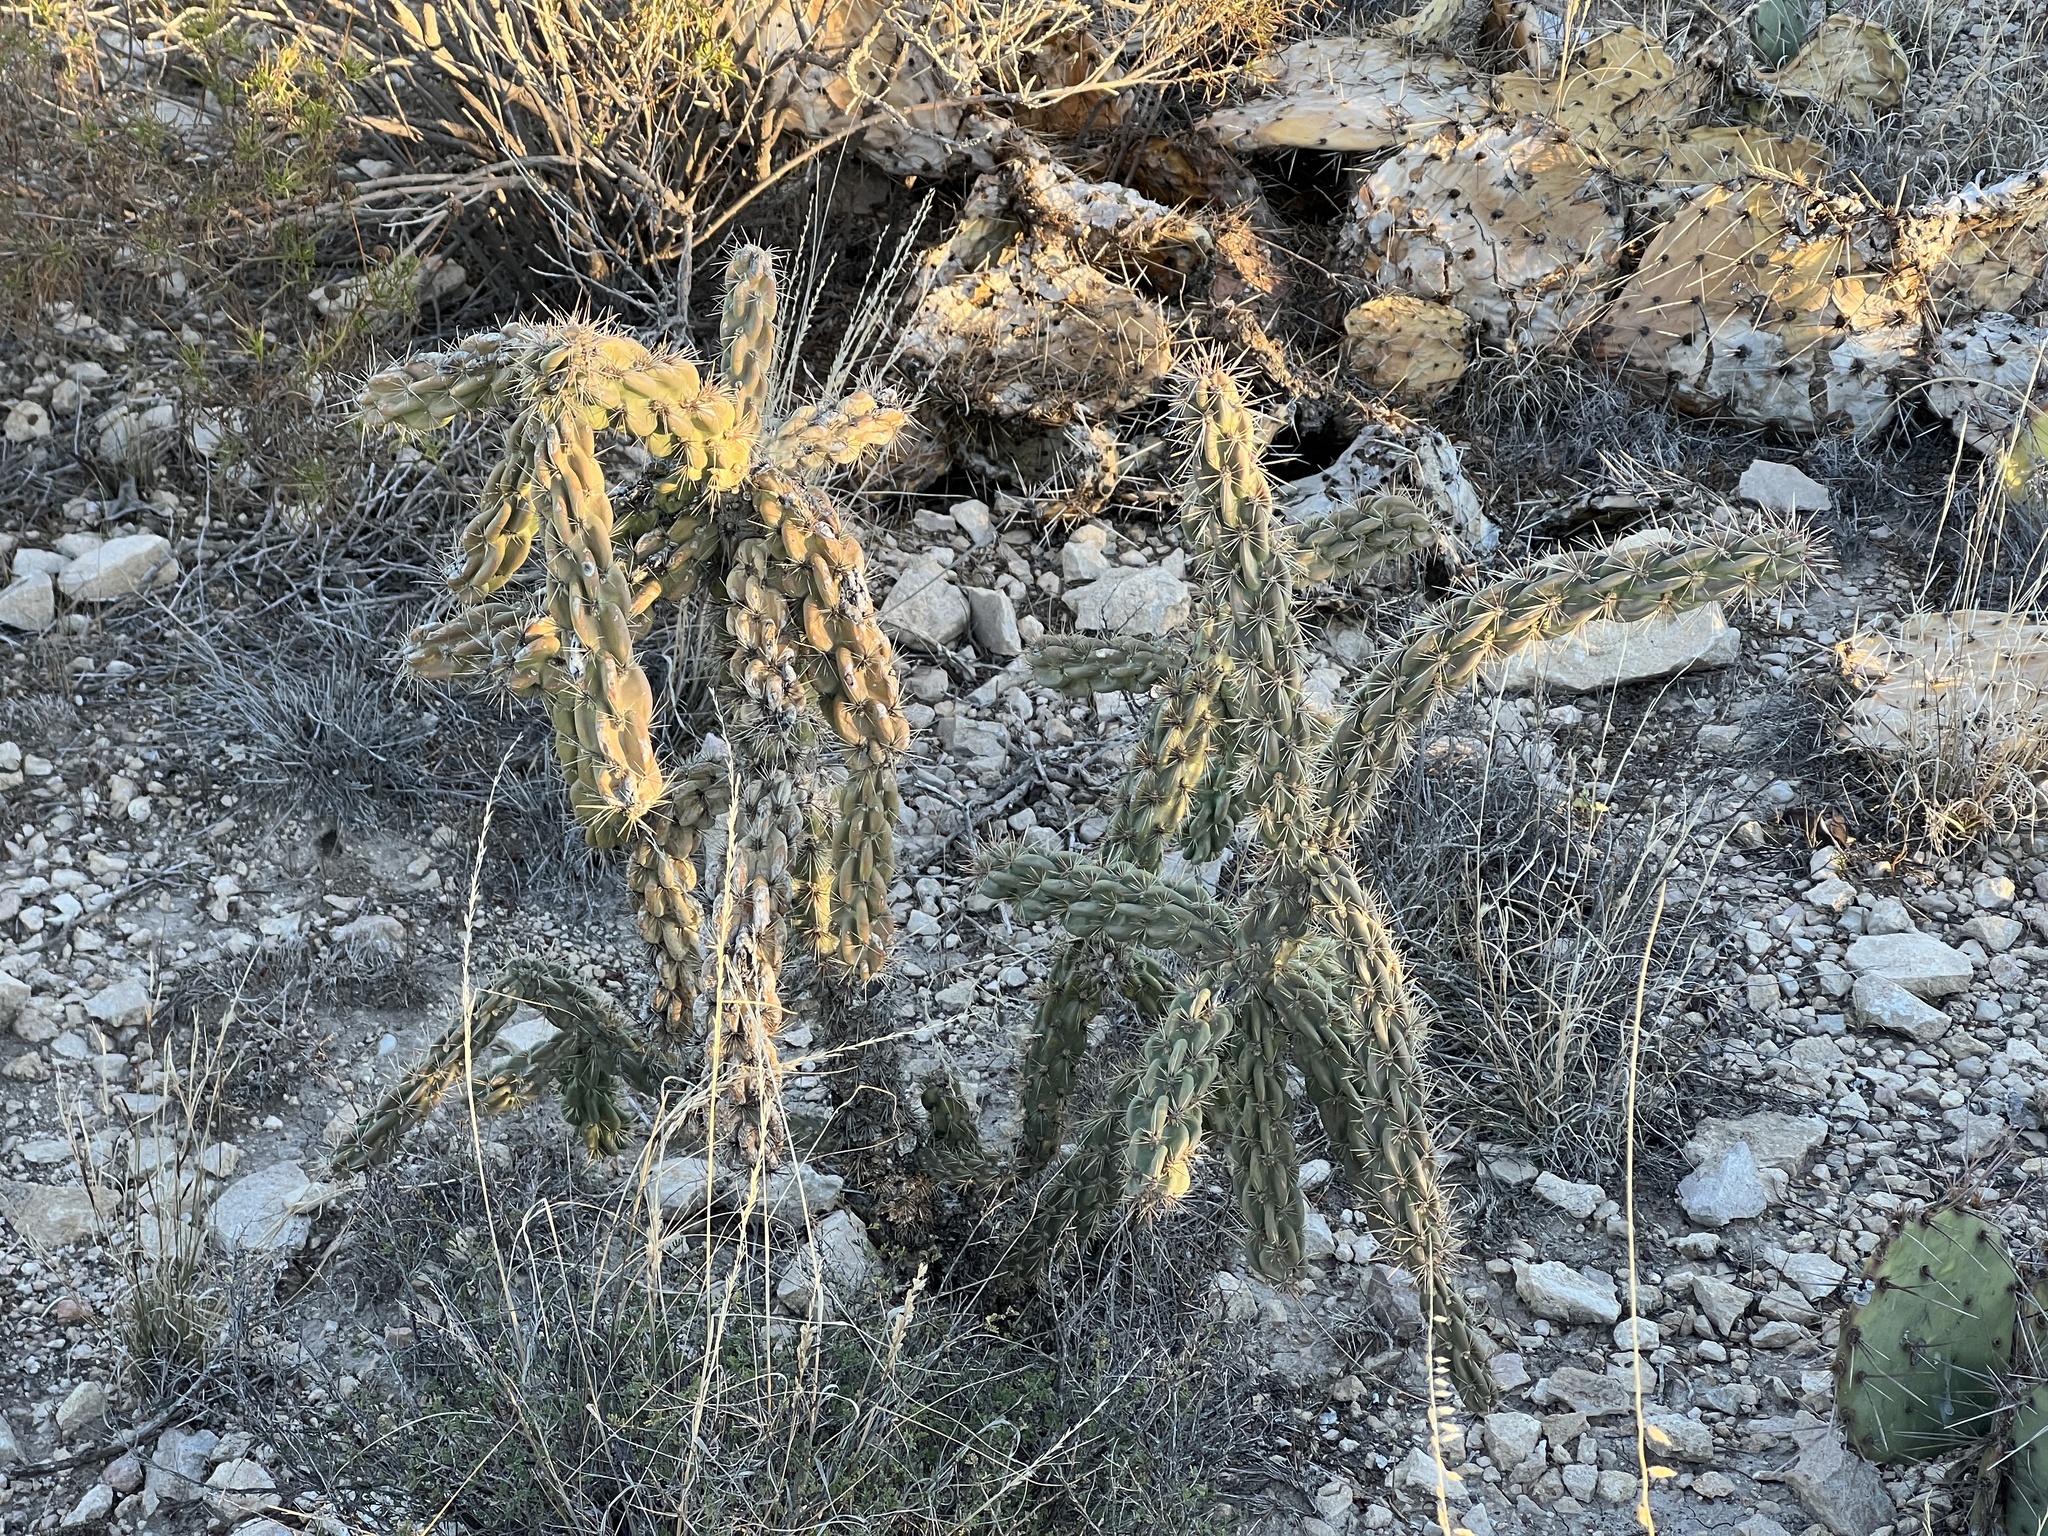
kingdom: Plantae
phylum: Tracheophyta
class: Magnoliopsida
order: Caryophyllales
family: Cactaceae
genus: Cylindropuntia
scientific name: Cylindropuntia imbricata
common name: Candelabrum cactus
